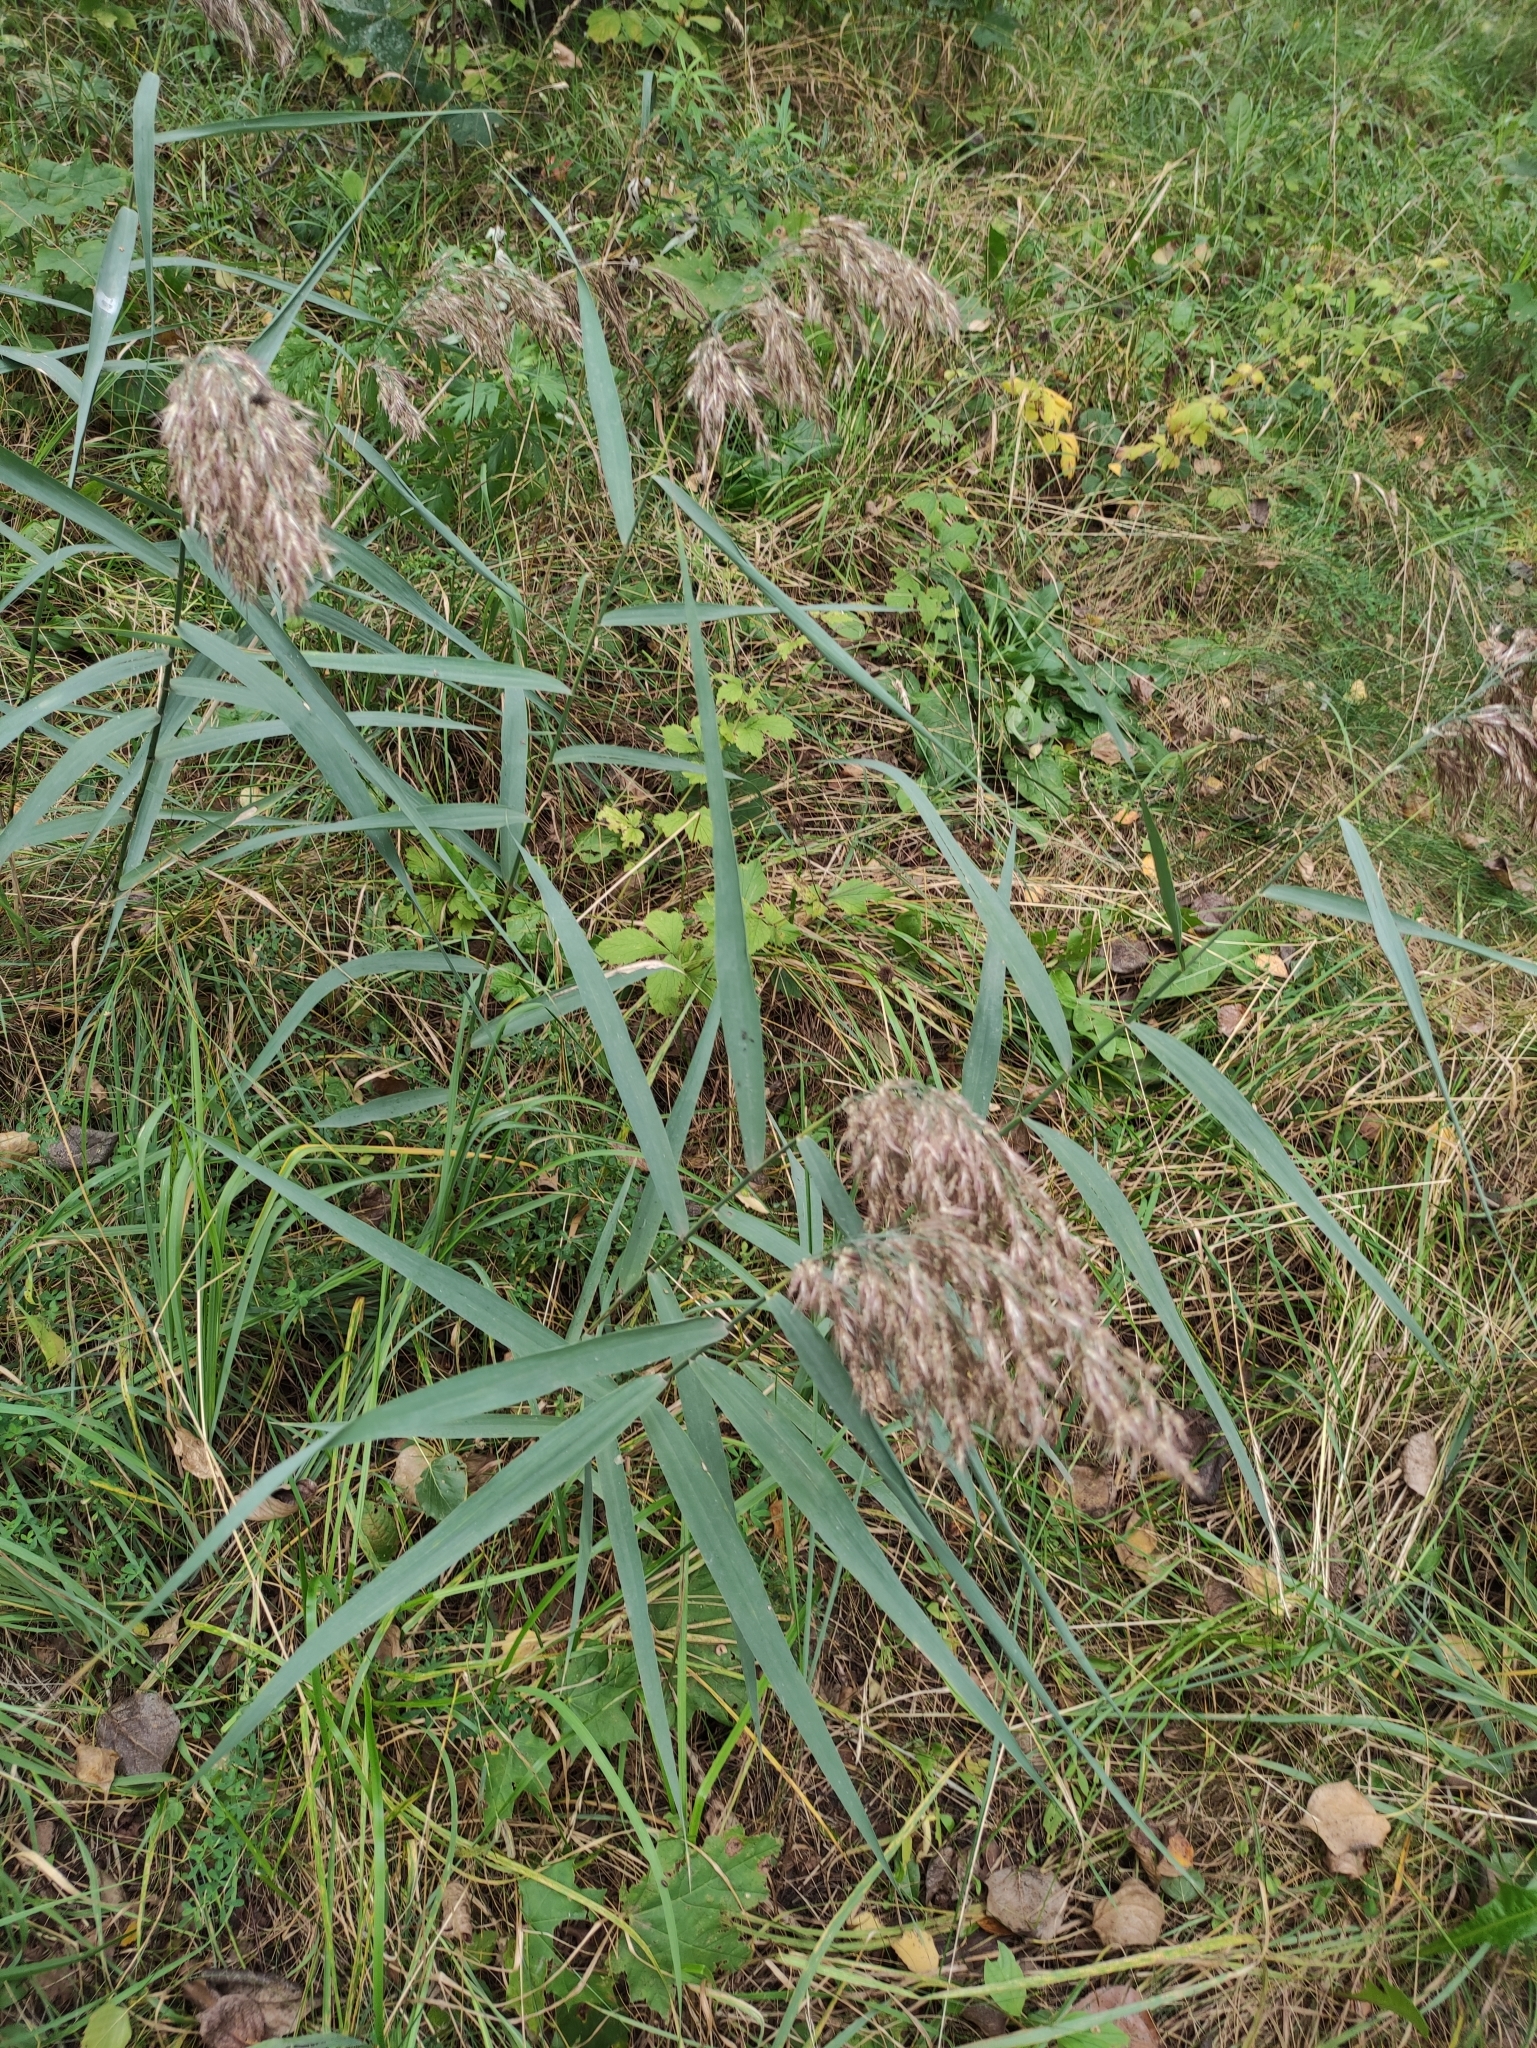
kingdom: Plantae
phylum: Tracheophyta
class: Liliopsida
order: Poales
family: Poaceae
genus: Phragmites
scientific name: Phragmites australis
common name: Common reed
